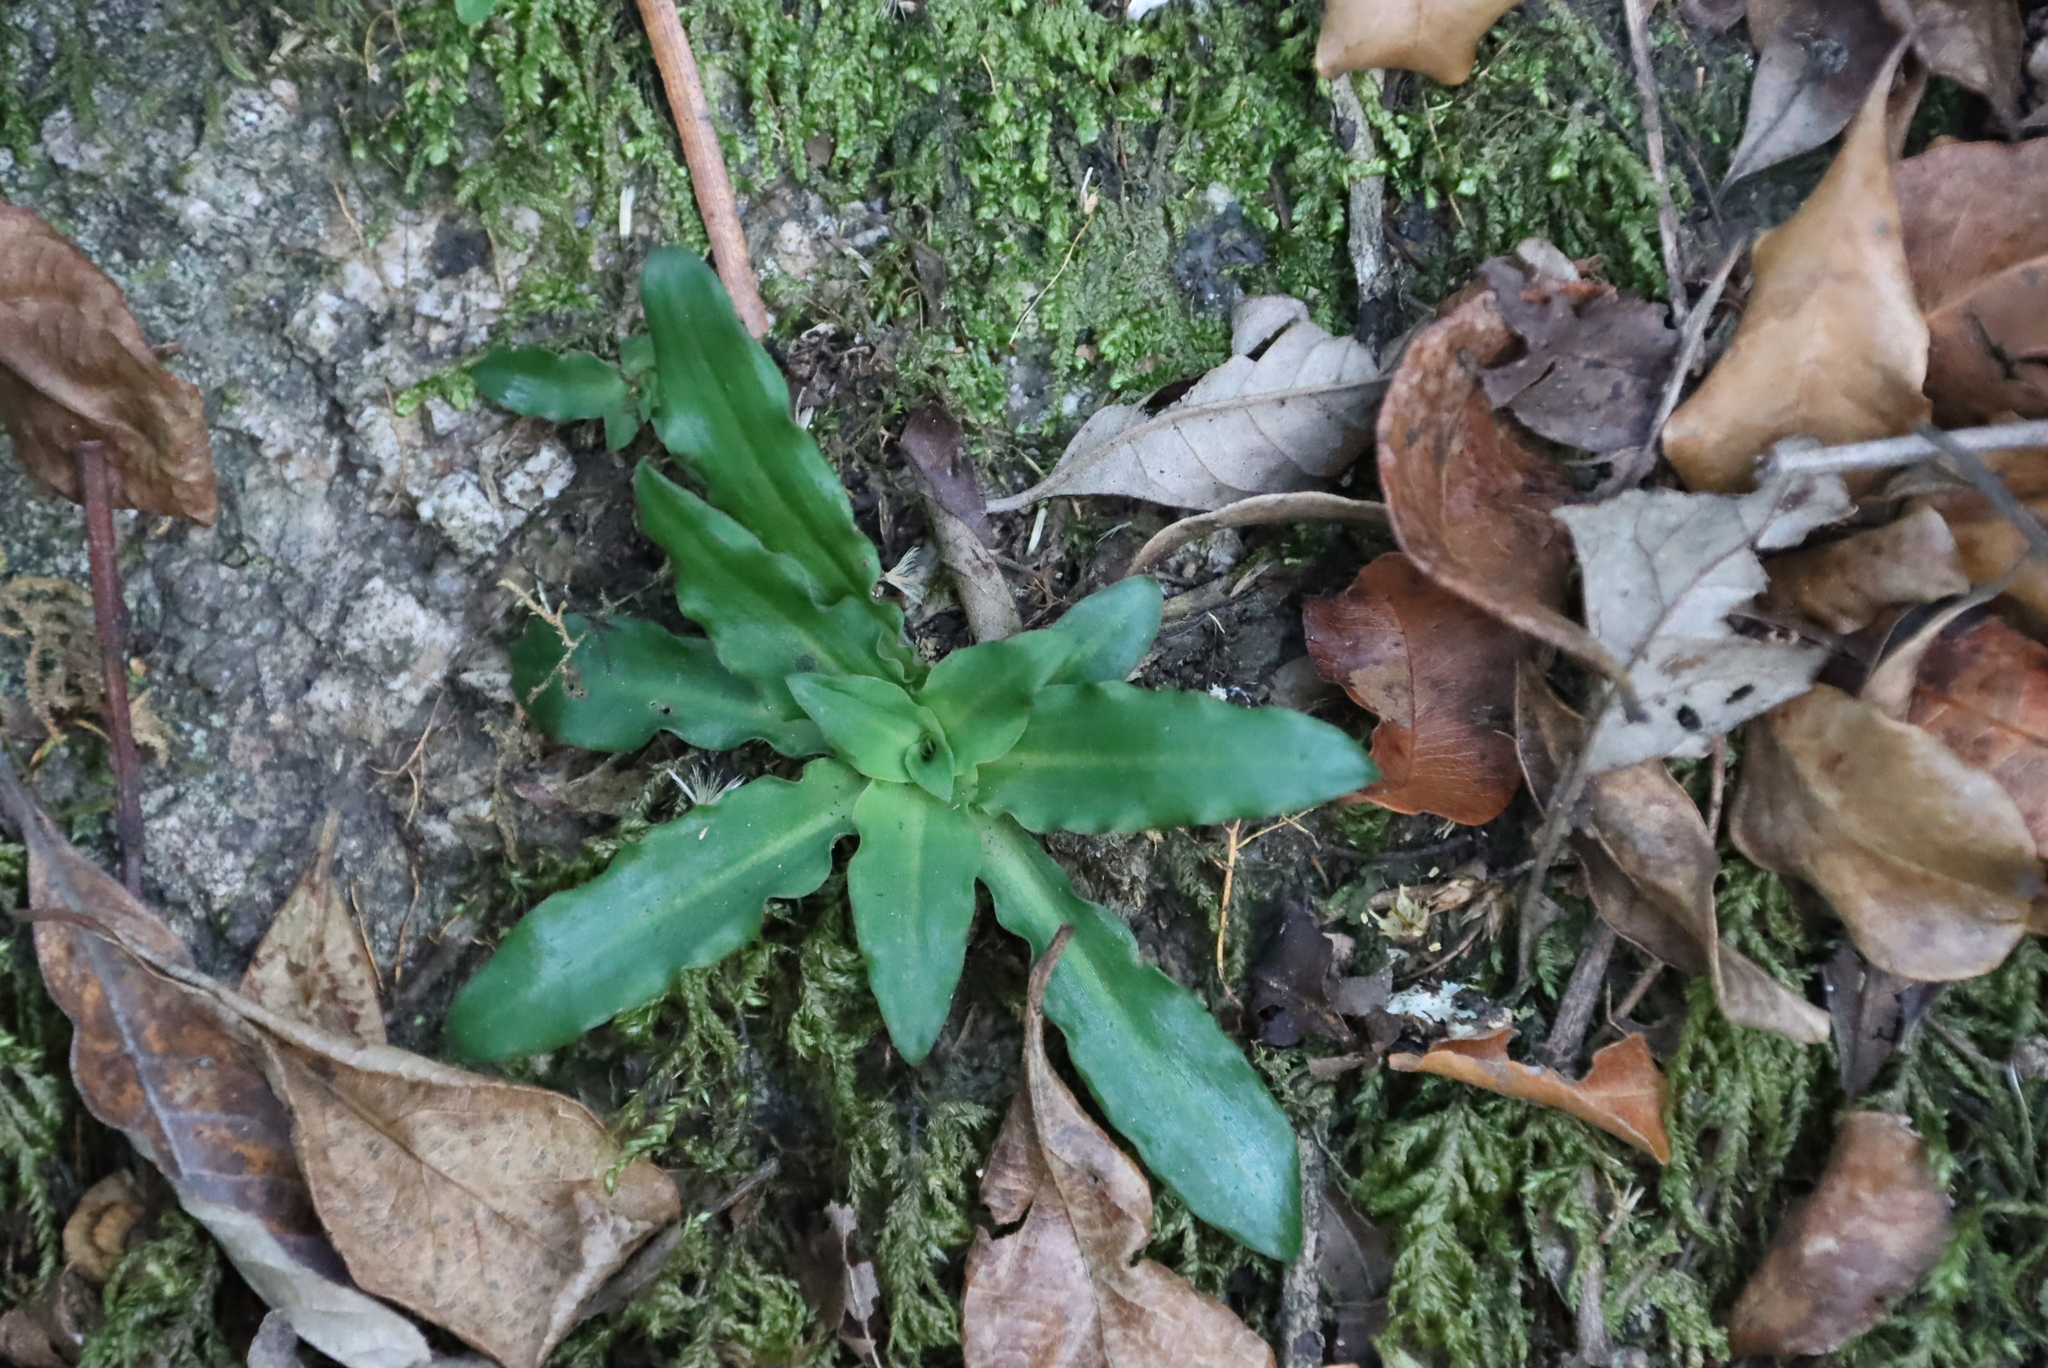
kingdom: Plantae
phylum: Tracheophyta
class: Liliopsida
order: Asparagales
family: Orchidaceae
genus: Stenoglottis
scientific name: Stenoglottis fimbriata
